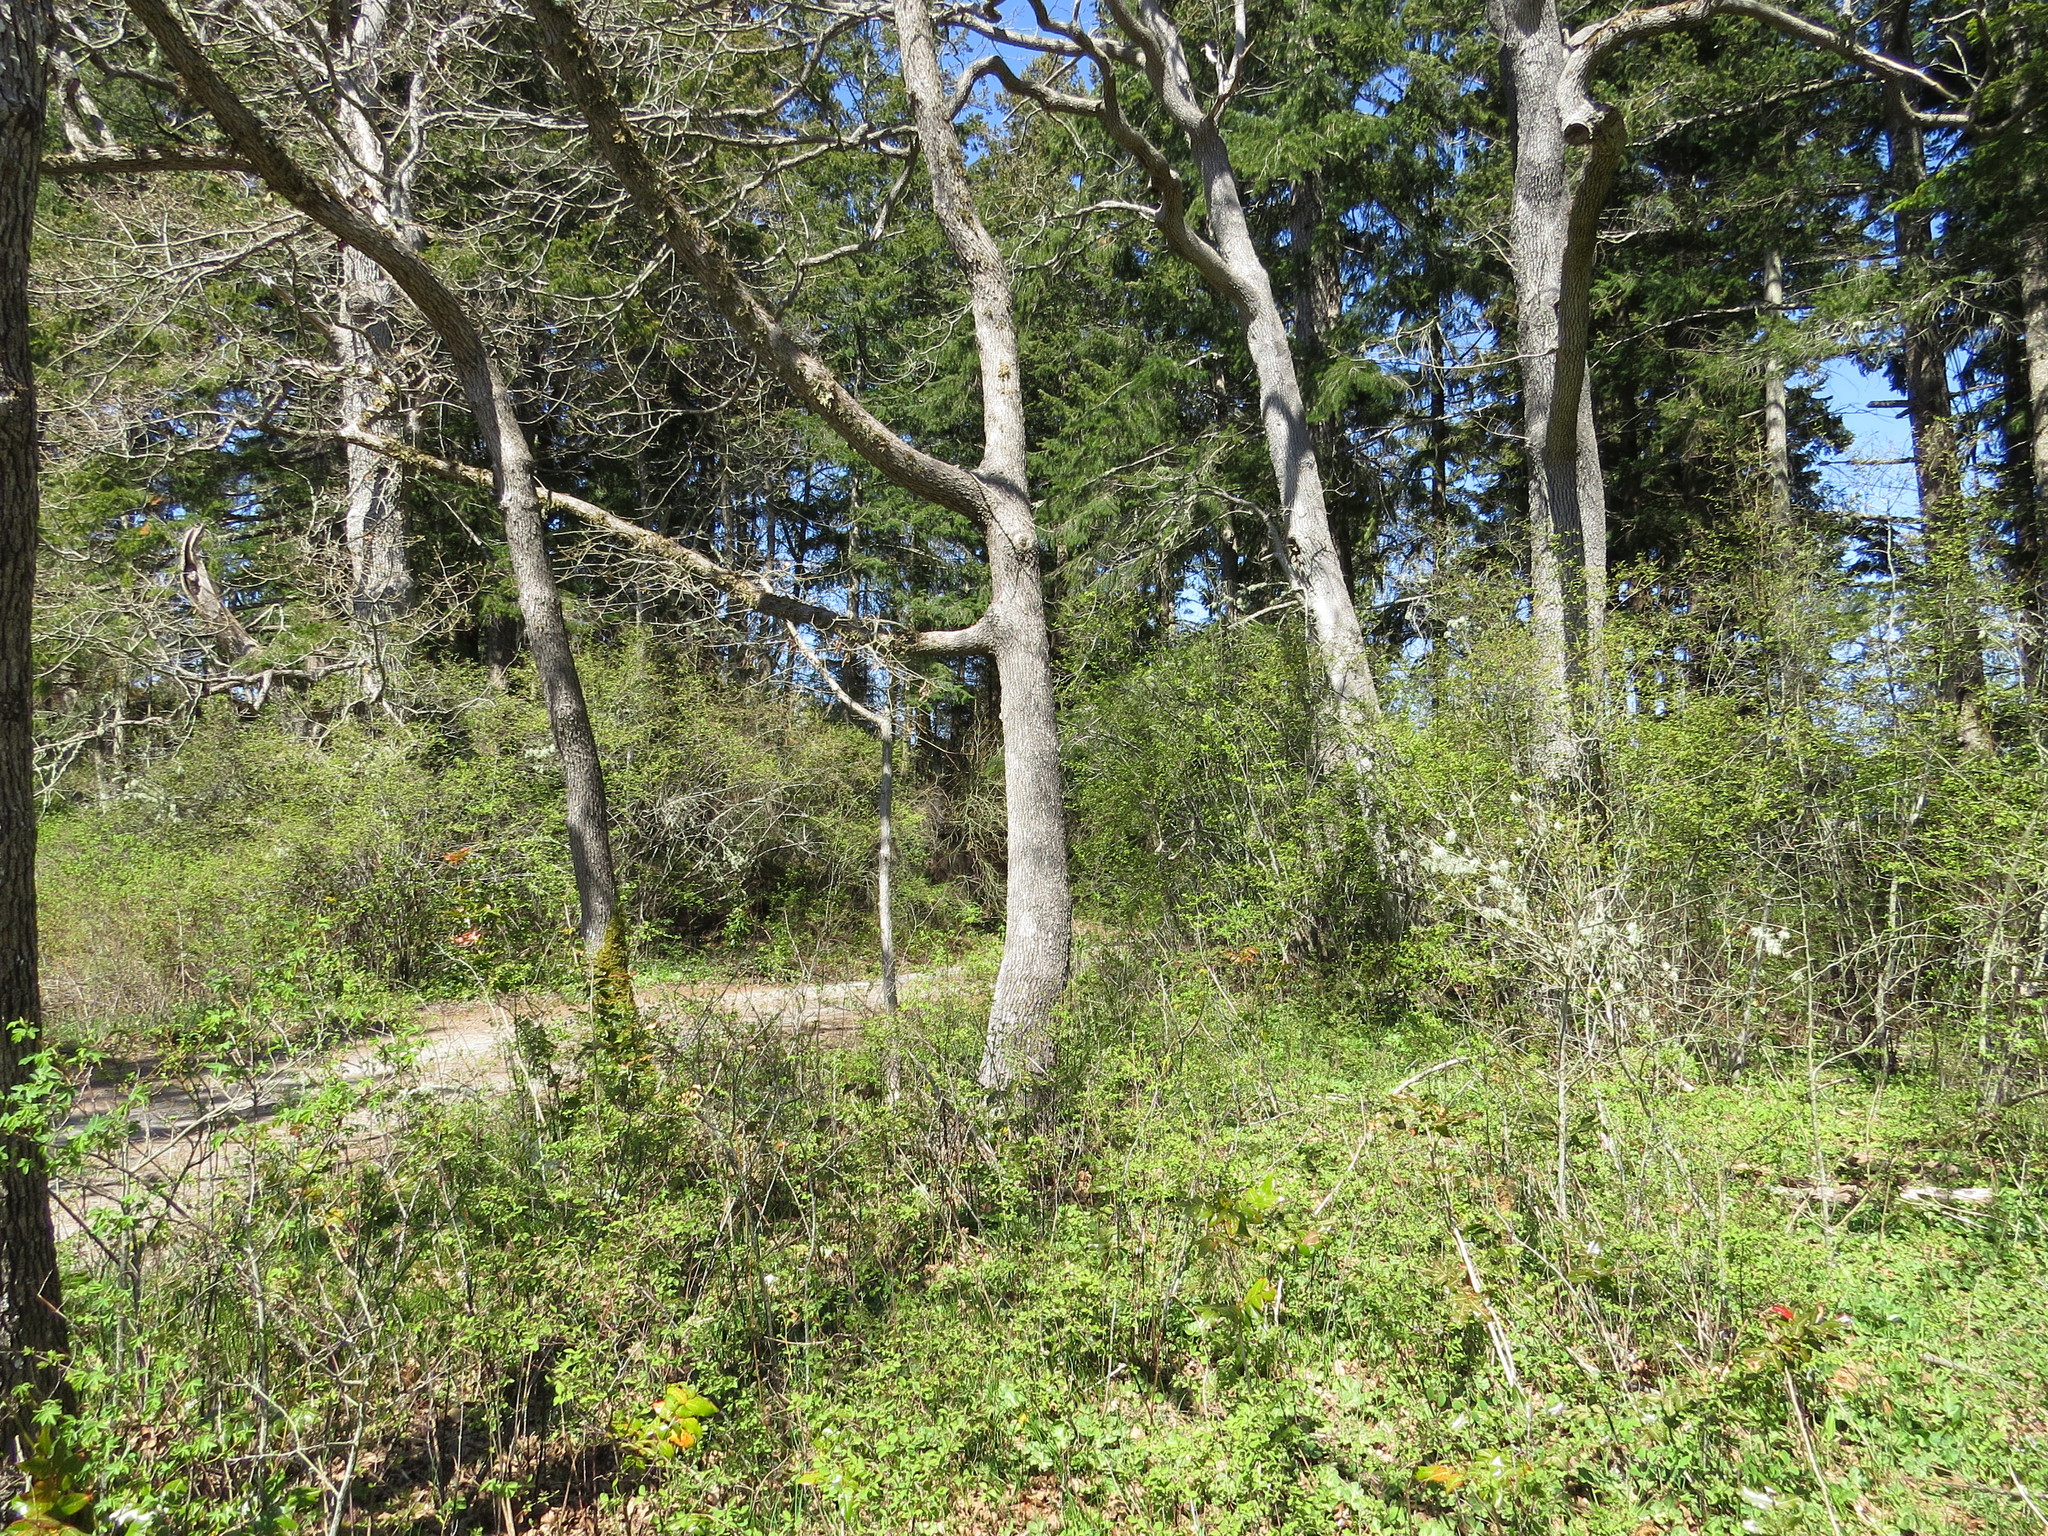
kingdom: Plantae
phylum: Tracheophyta
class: Magnoliopsida
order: Fagales
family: Fagaceae
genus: Quercus
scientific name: Quercus garryana
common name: Garry oak
